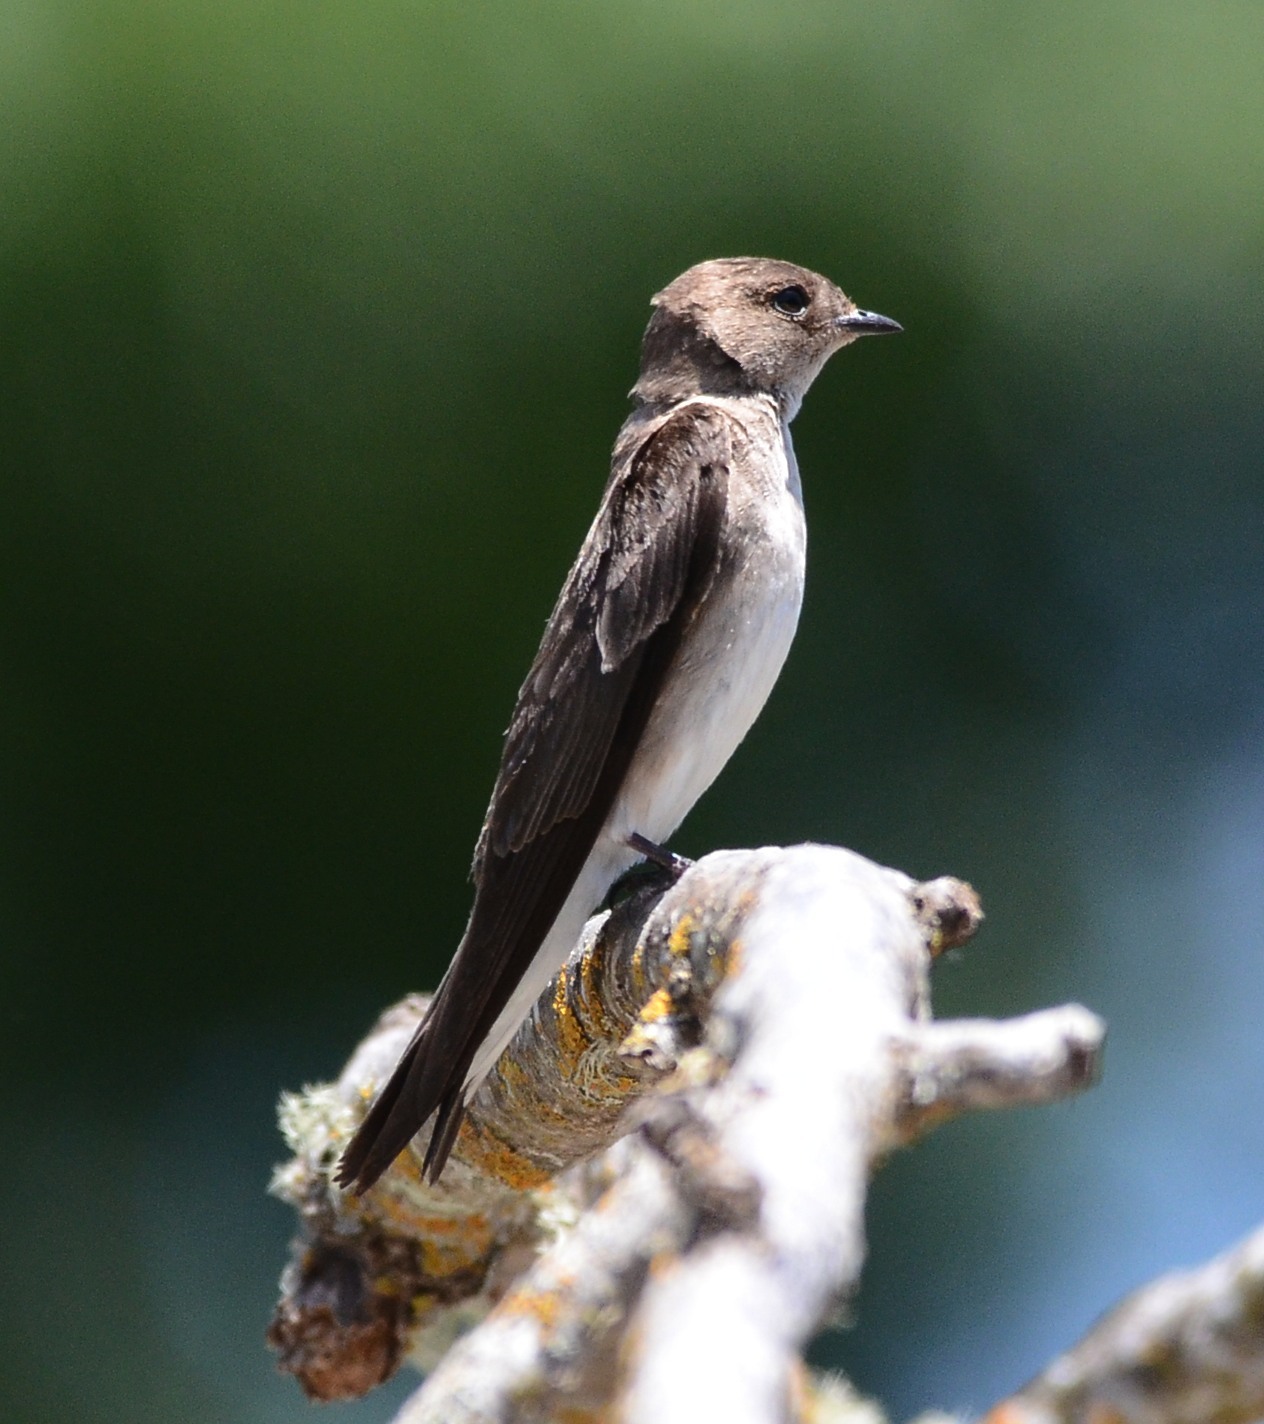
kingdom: Animalia
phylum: Chordata
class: Aves
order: Passeriformes
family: Hirundinidae
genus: Stelgidopteryx
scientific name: Stelgidopteryx serripennis
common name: Northern rough-winged swallow
